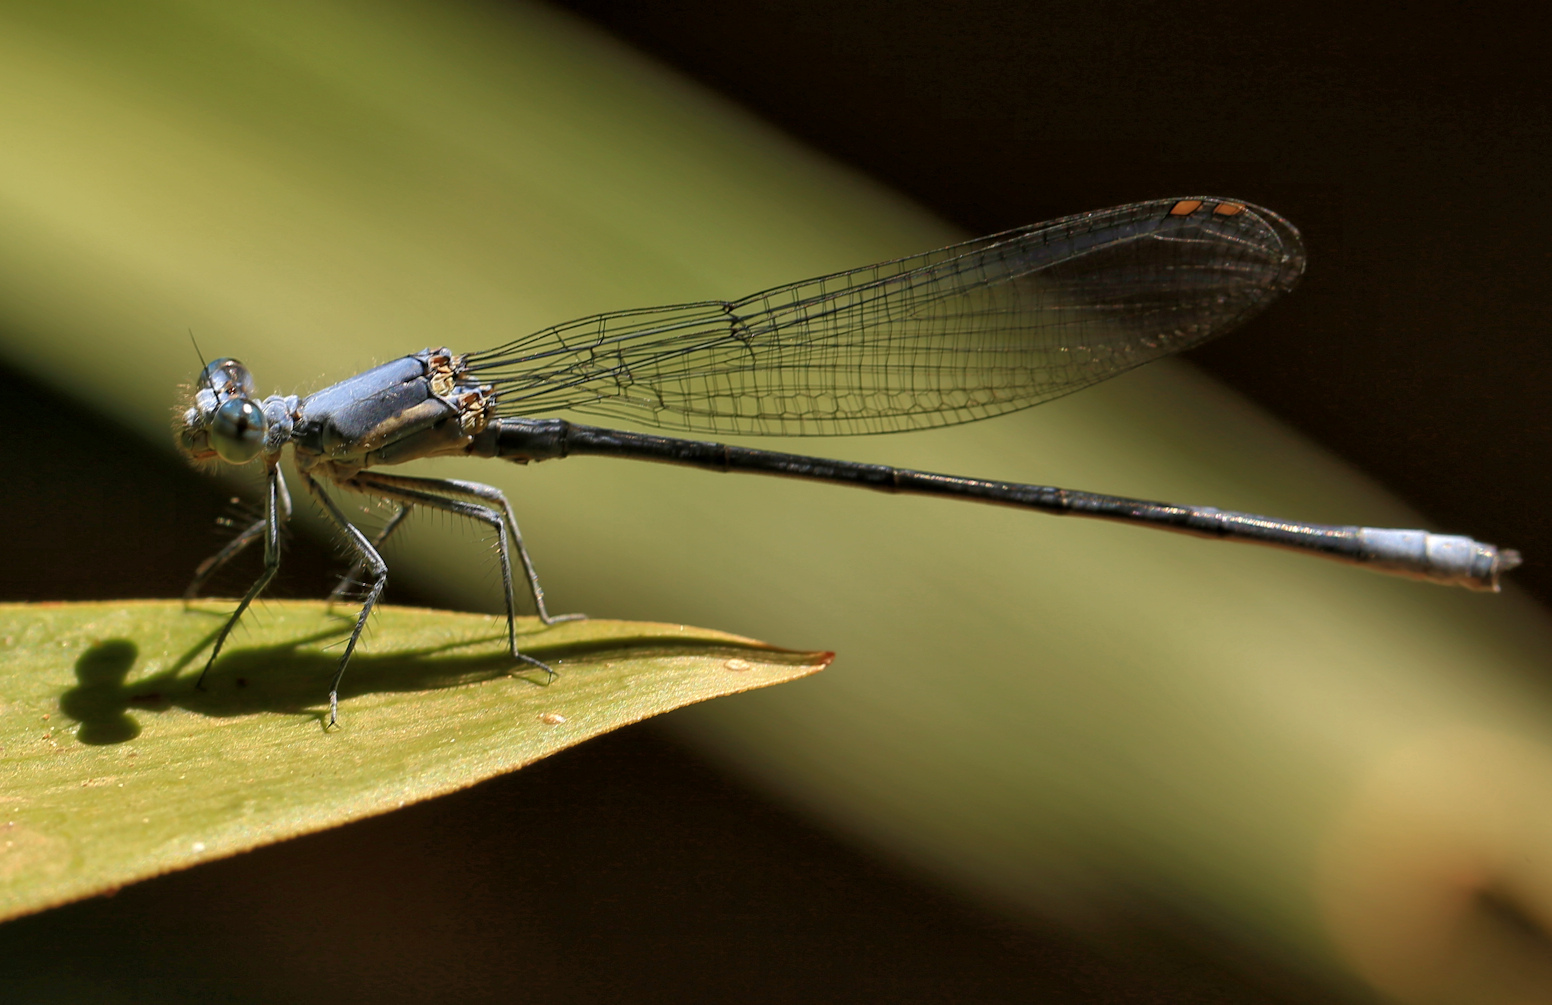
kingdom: Animalia
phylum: Arthropoda
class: Insecta
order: Odonata
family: Platycnemididae
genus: Mesocnemis
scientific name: Mesocnemis singularis
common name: Common riverjack
